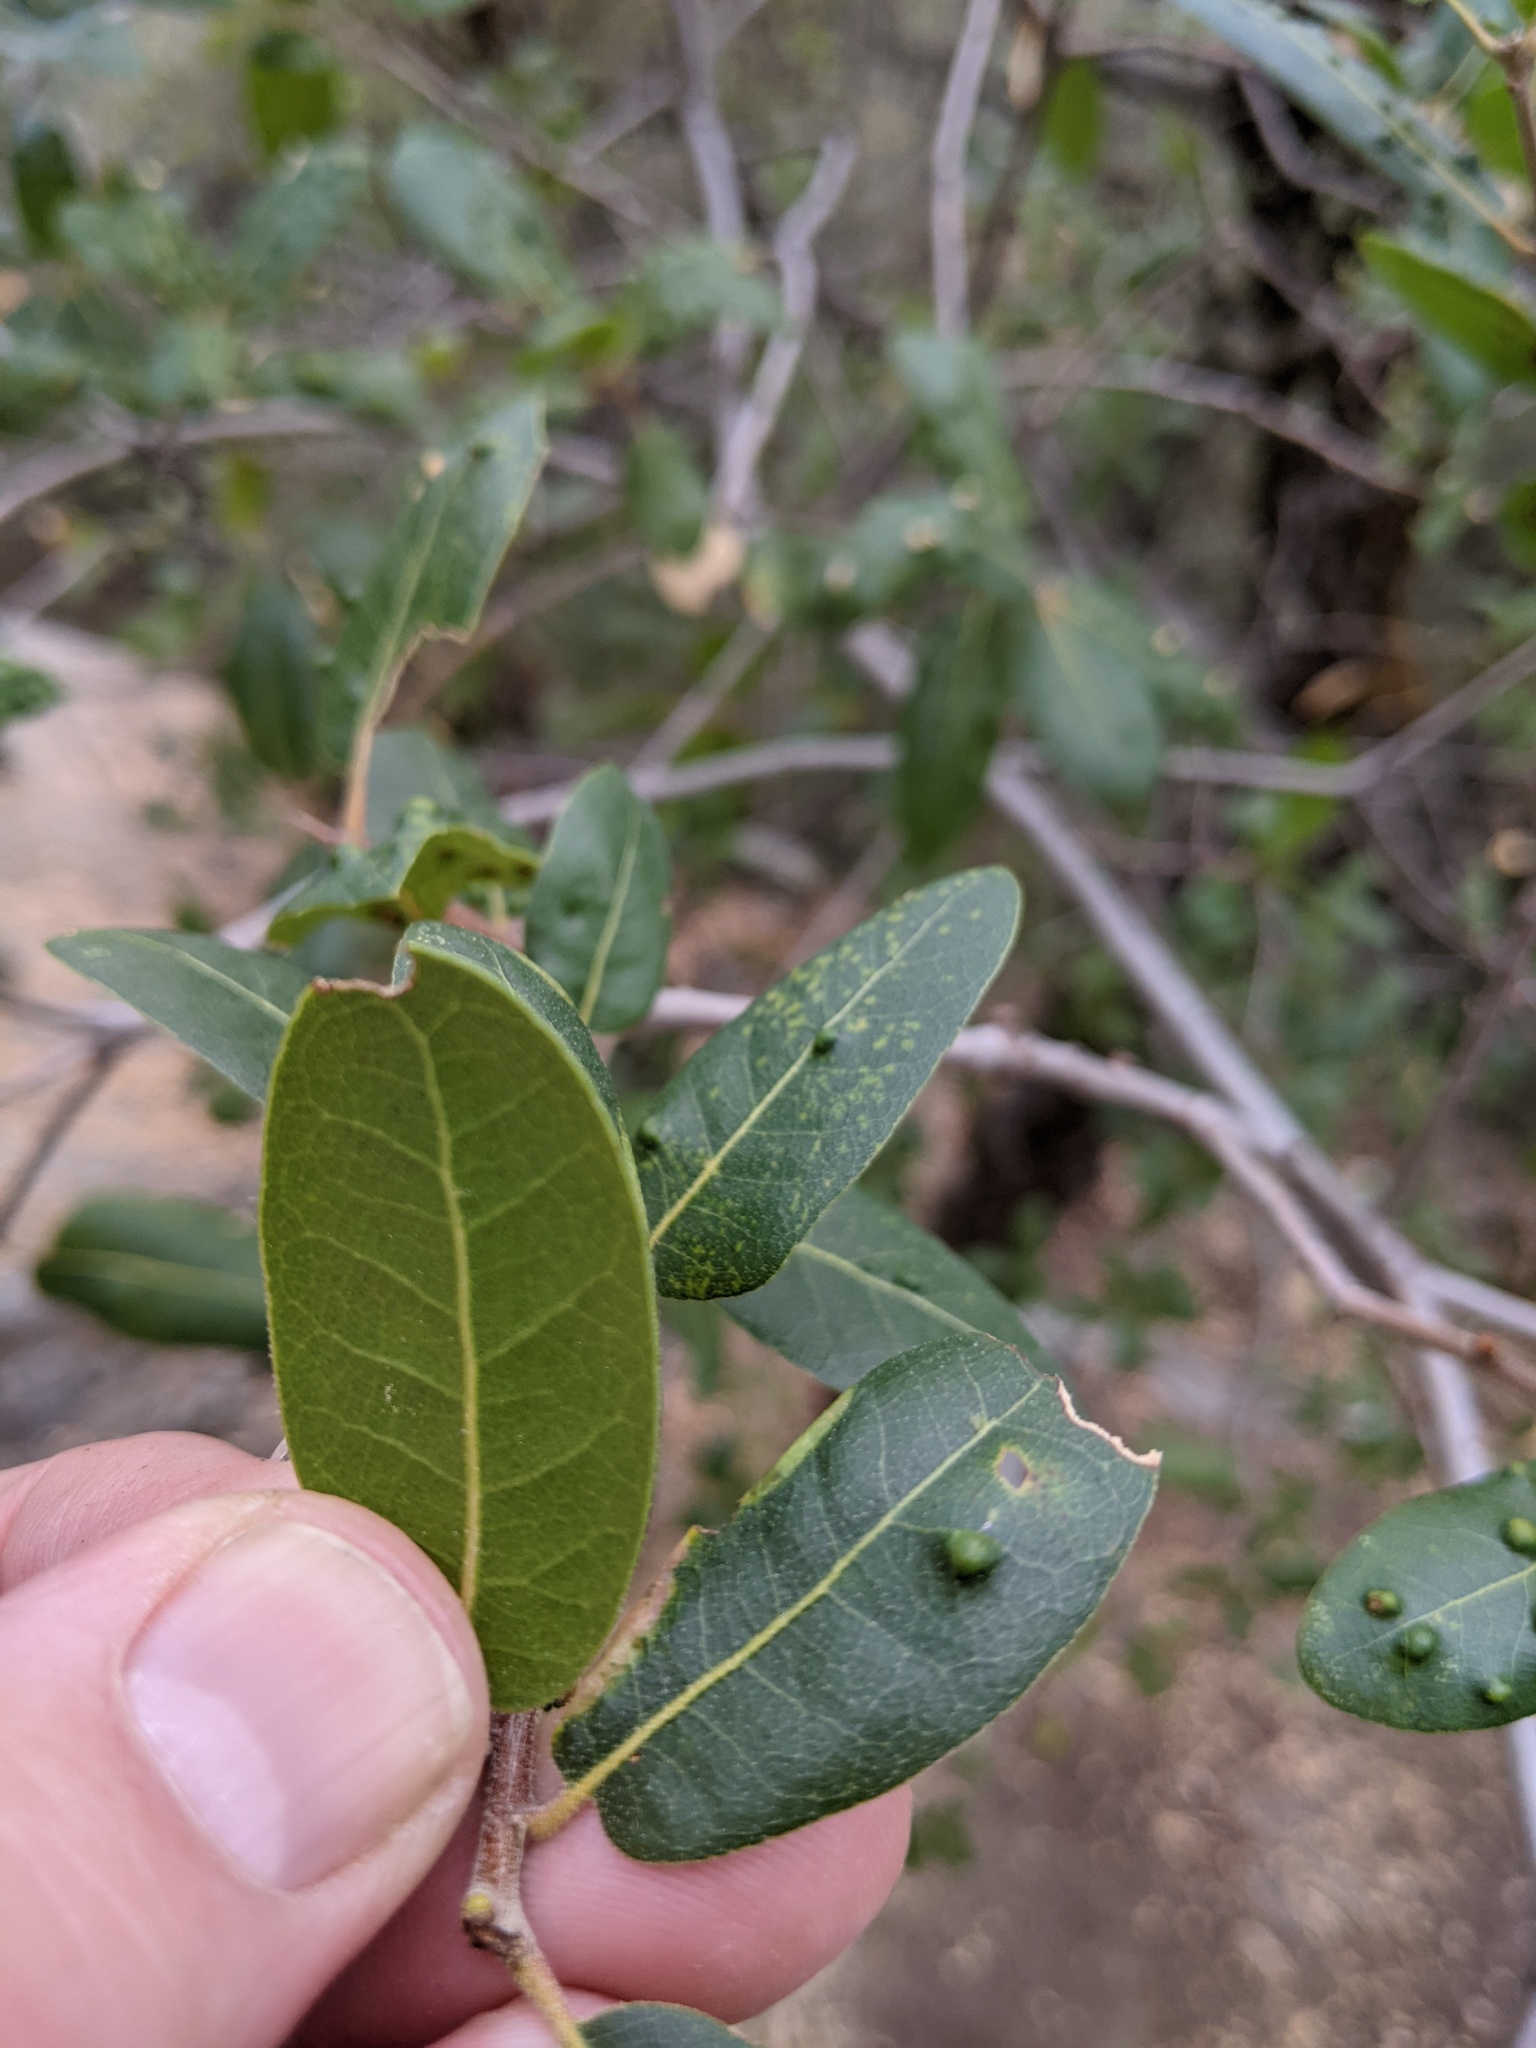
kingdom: Plantae
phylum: Tracheophyta
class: Magnoliopsida
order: Fagales
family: Fagaceae
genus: Quercus
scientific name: Quercus wislizeni
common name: Interior live oak
